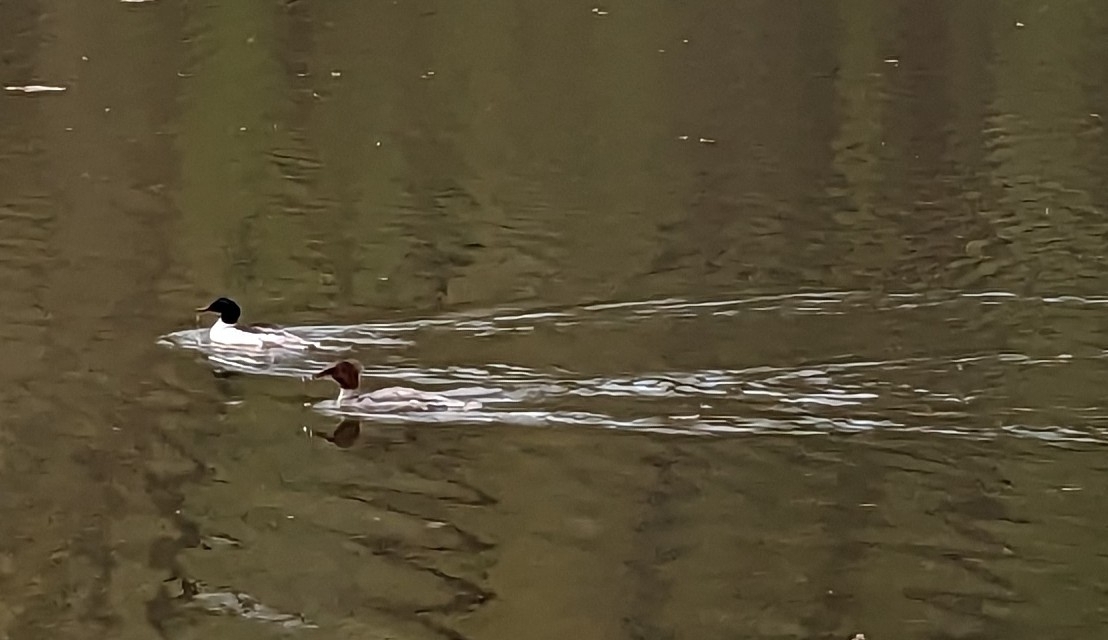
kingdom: Animalia
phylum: Chordata
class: Aves
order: Anseriformes
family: Anatidae
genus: Mergus
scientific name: Mergus merganser
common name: Common merganser
